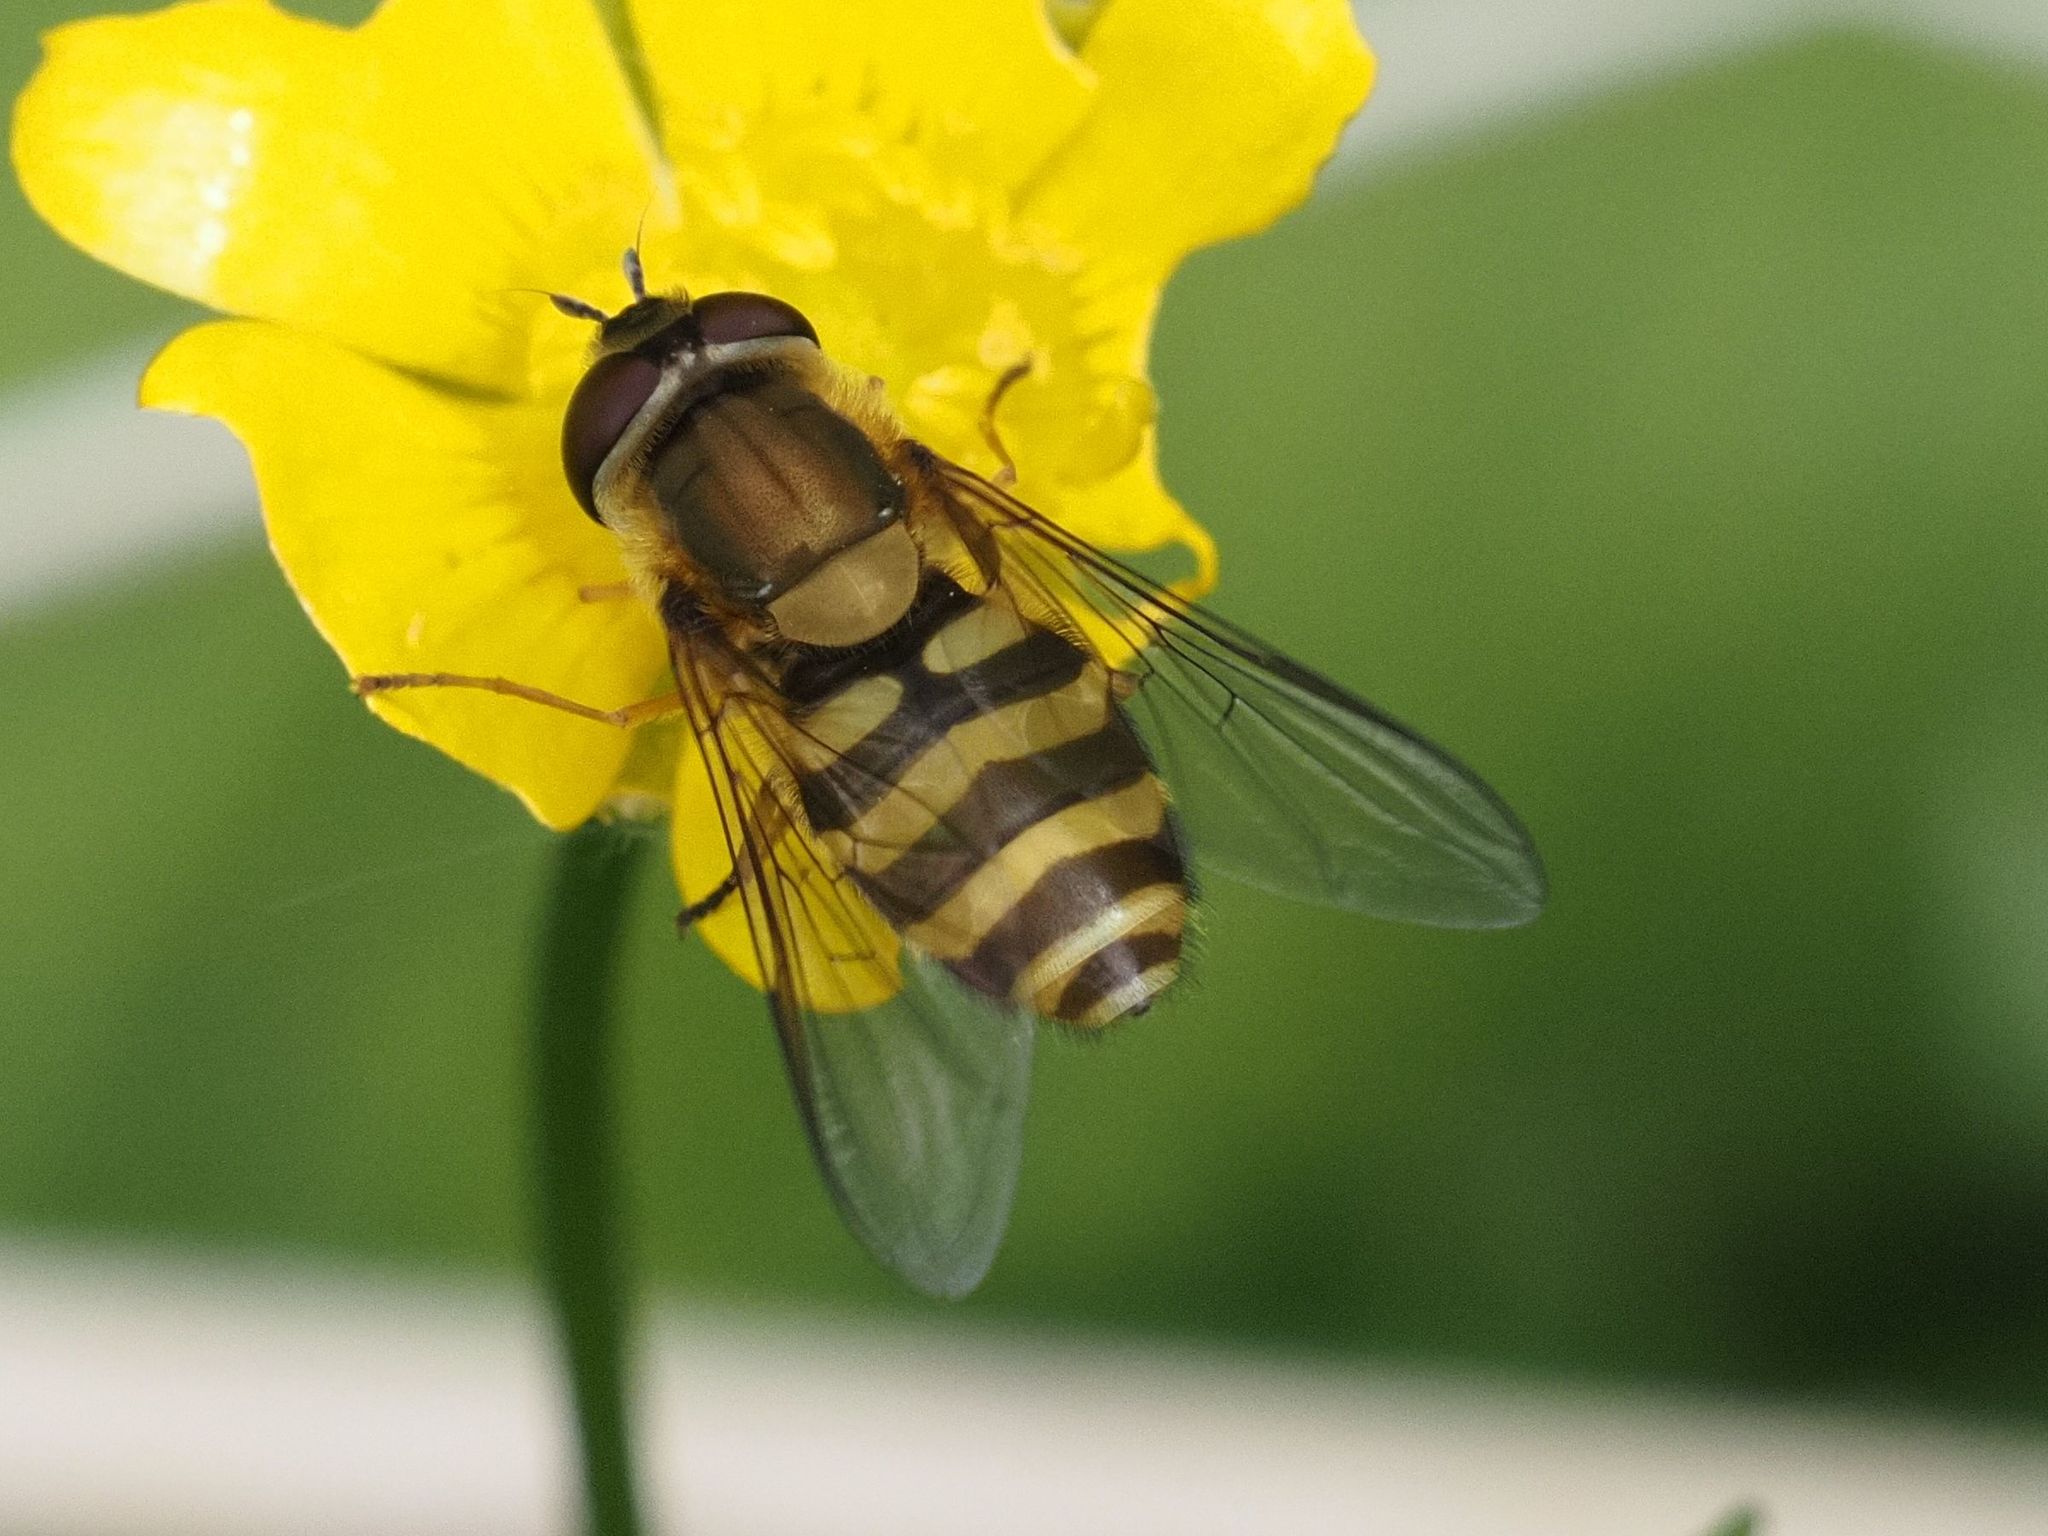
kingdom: Animalia
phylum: Arthropoda
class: Insecta
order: Diptera
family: Syrphidae
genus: Syrphus
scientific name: Syrphus
